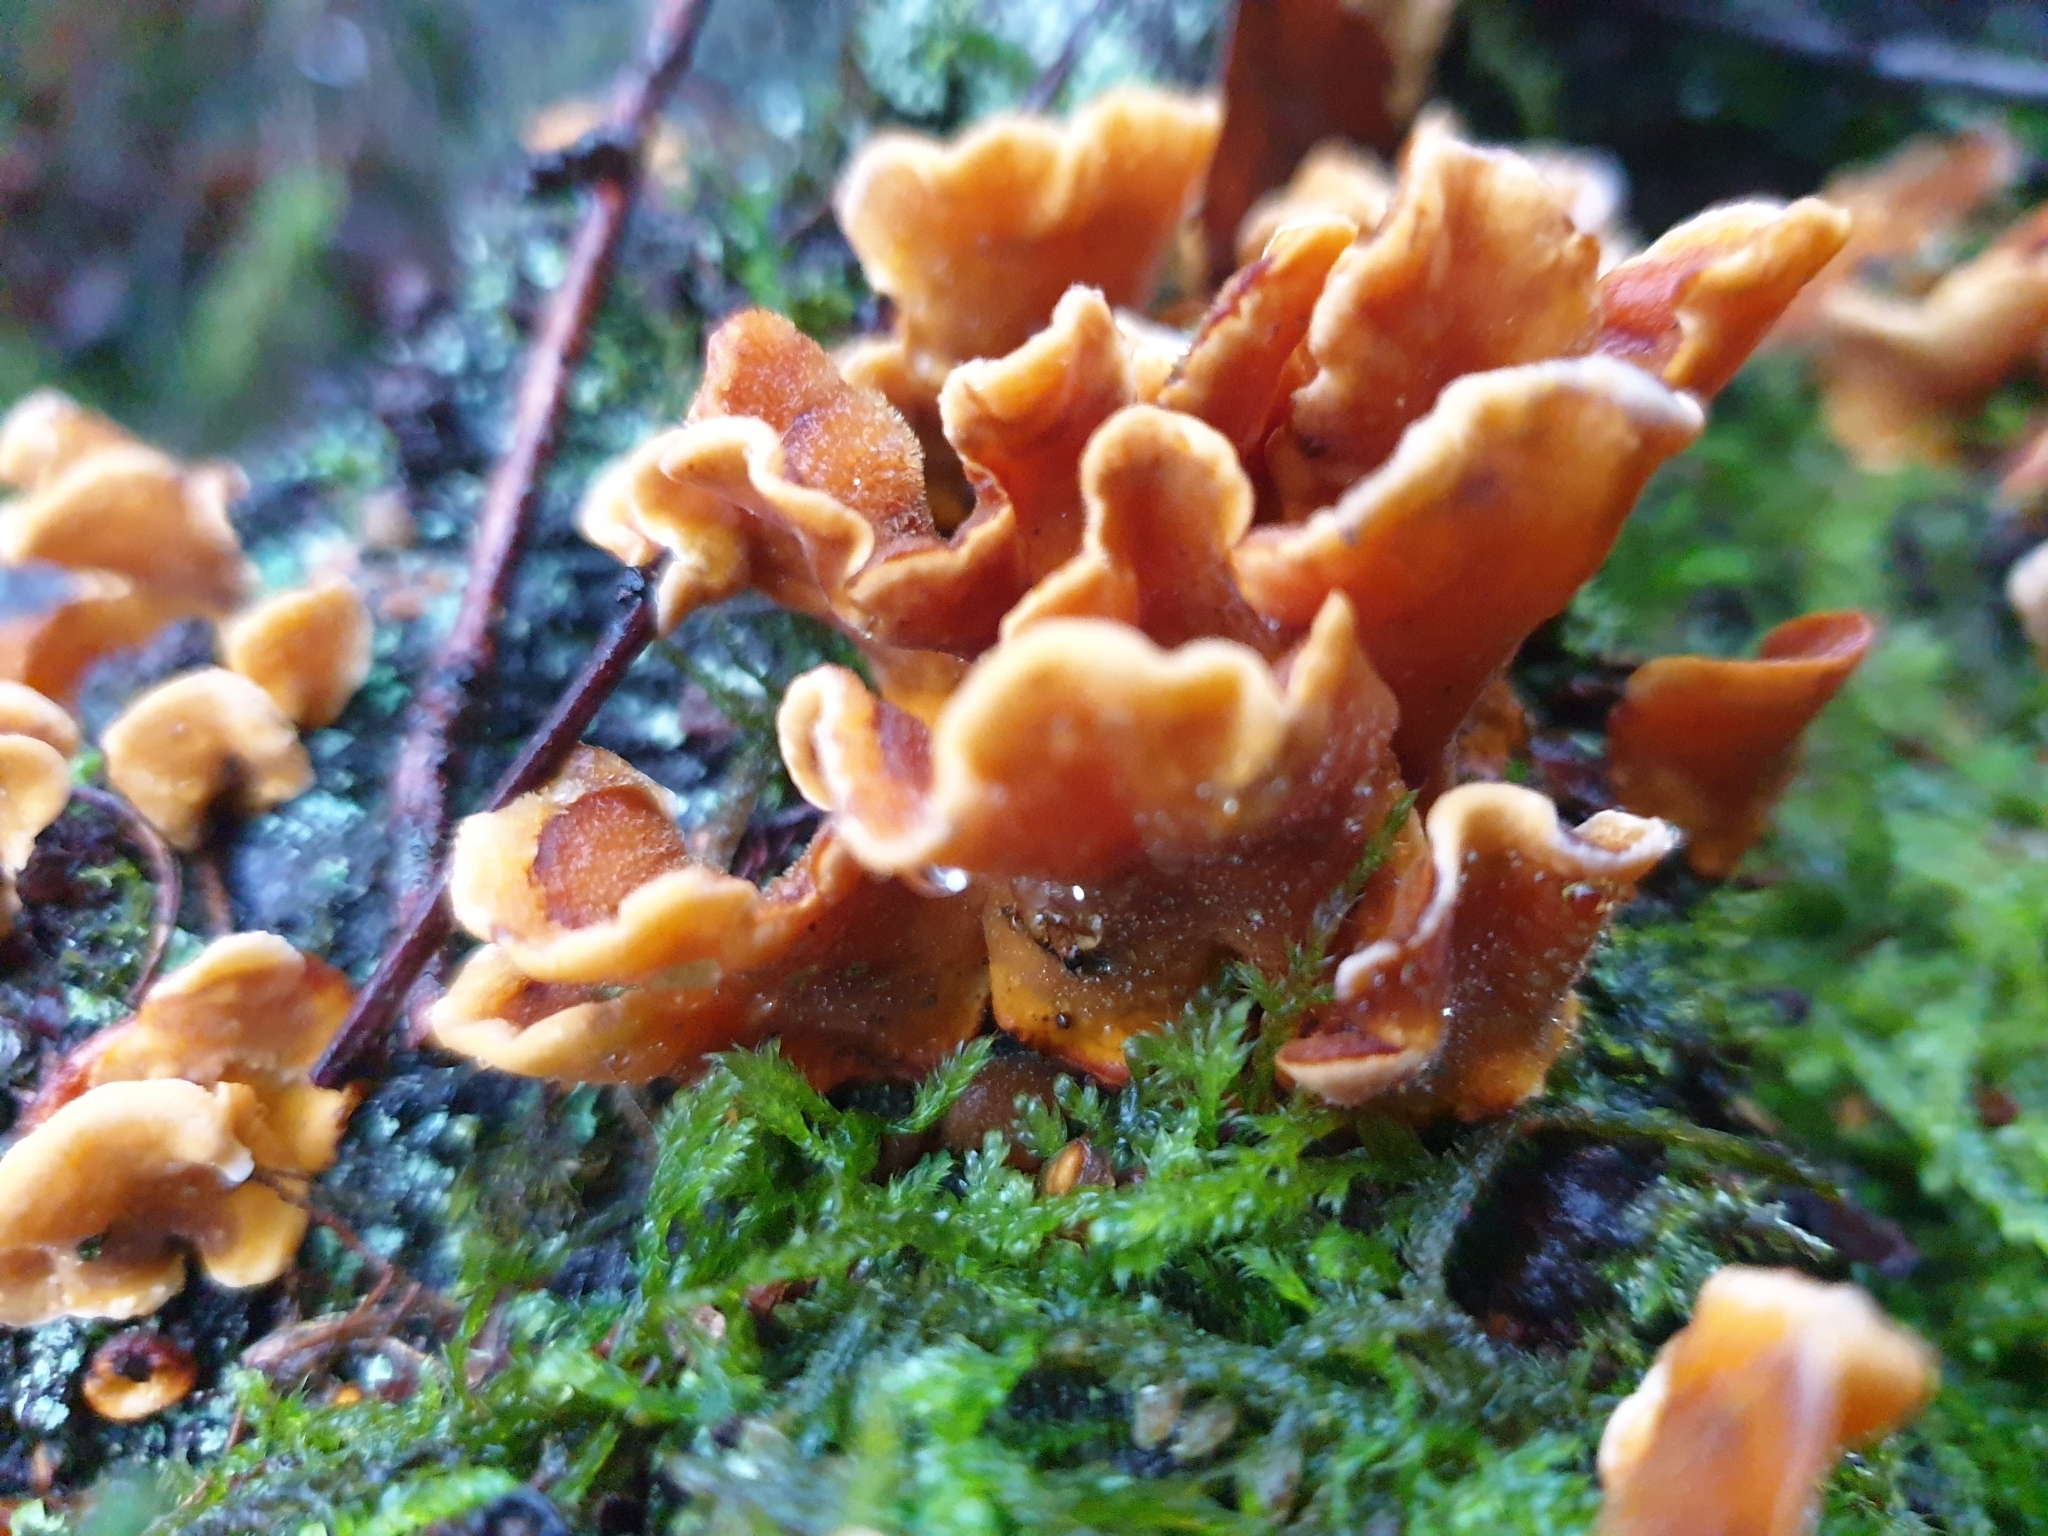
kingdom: Fungi
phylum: Basidiomycota
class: Agaricomycetes
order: Russulales
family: Stereaceae
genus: Stereum
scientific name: Stereum hirsutum
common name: Hairy curtain crust
